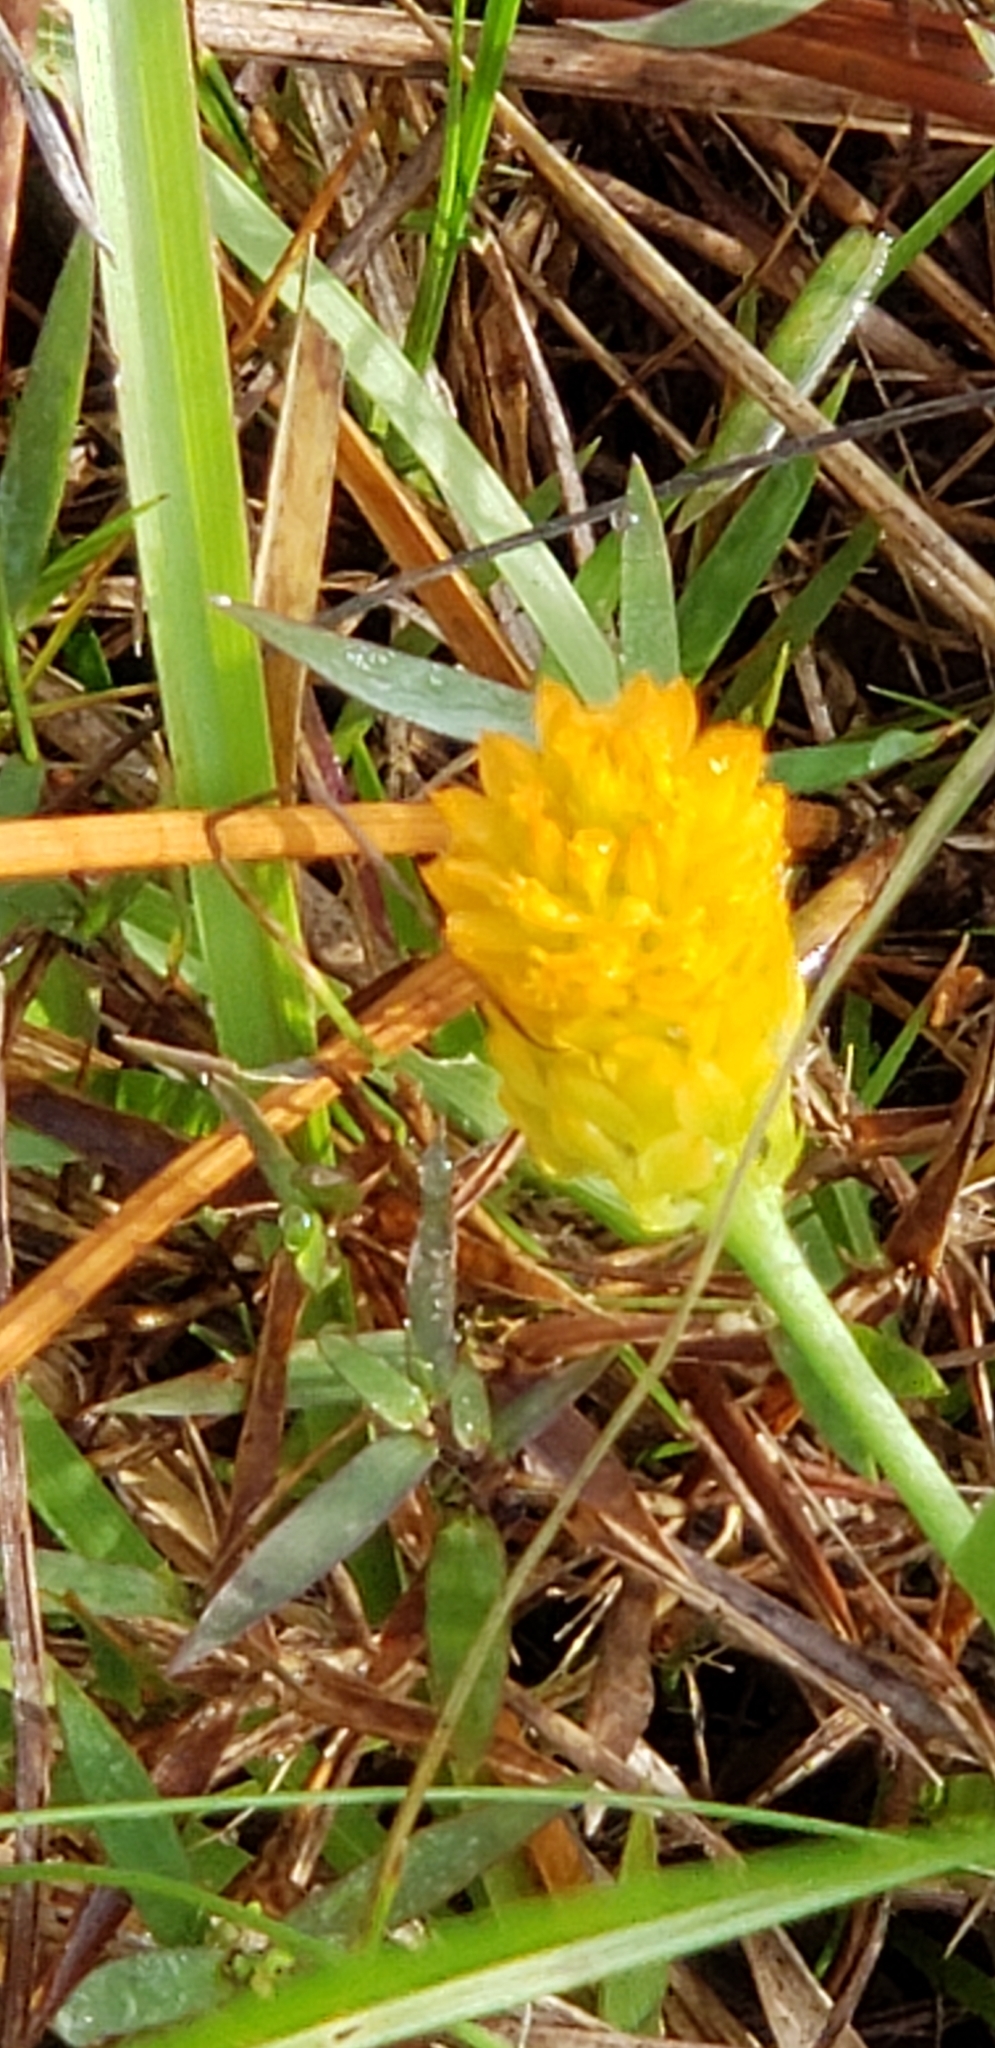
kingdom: Plantae
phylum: Tracheophyta
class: Magnoliopsida
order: Fabales
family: Polygalaceae
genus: Polygala
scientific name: Polygala rugelii
